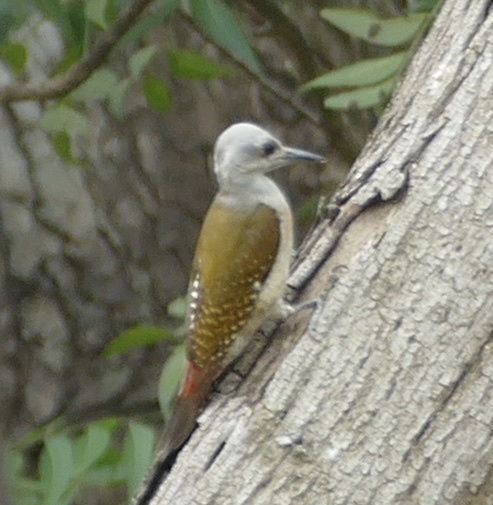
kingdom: Animalia
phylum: Chordata
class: Aves
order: Piciformes
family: Picidae
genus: Dendropicos
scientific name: Dendropicos goertae
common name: African grey woodpecker
